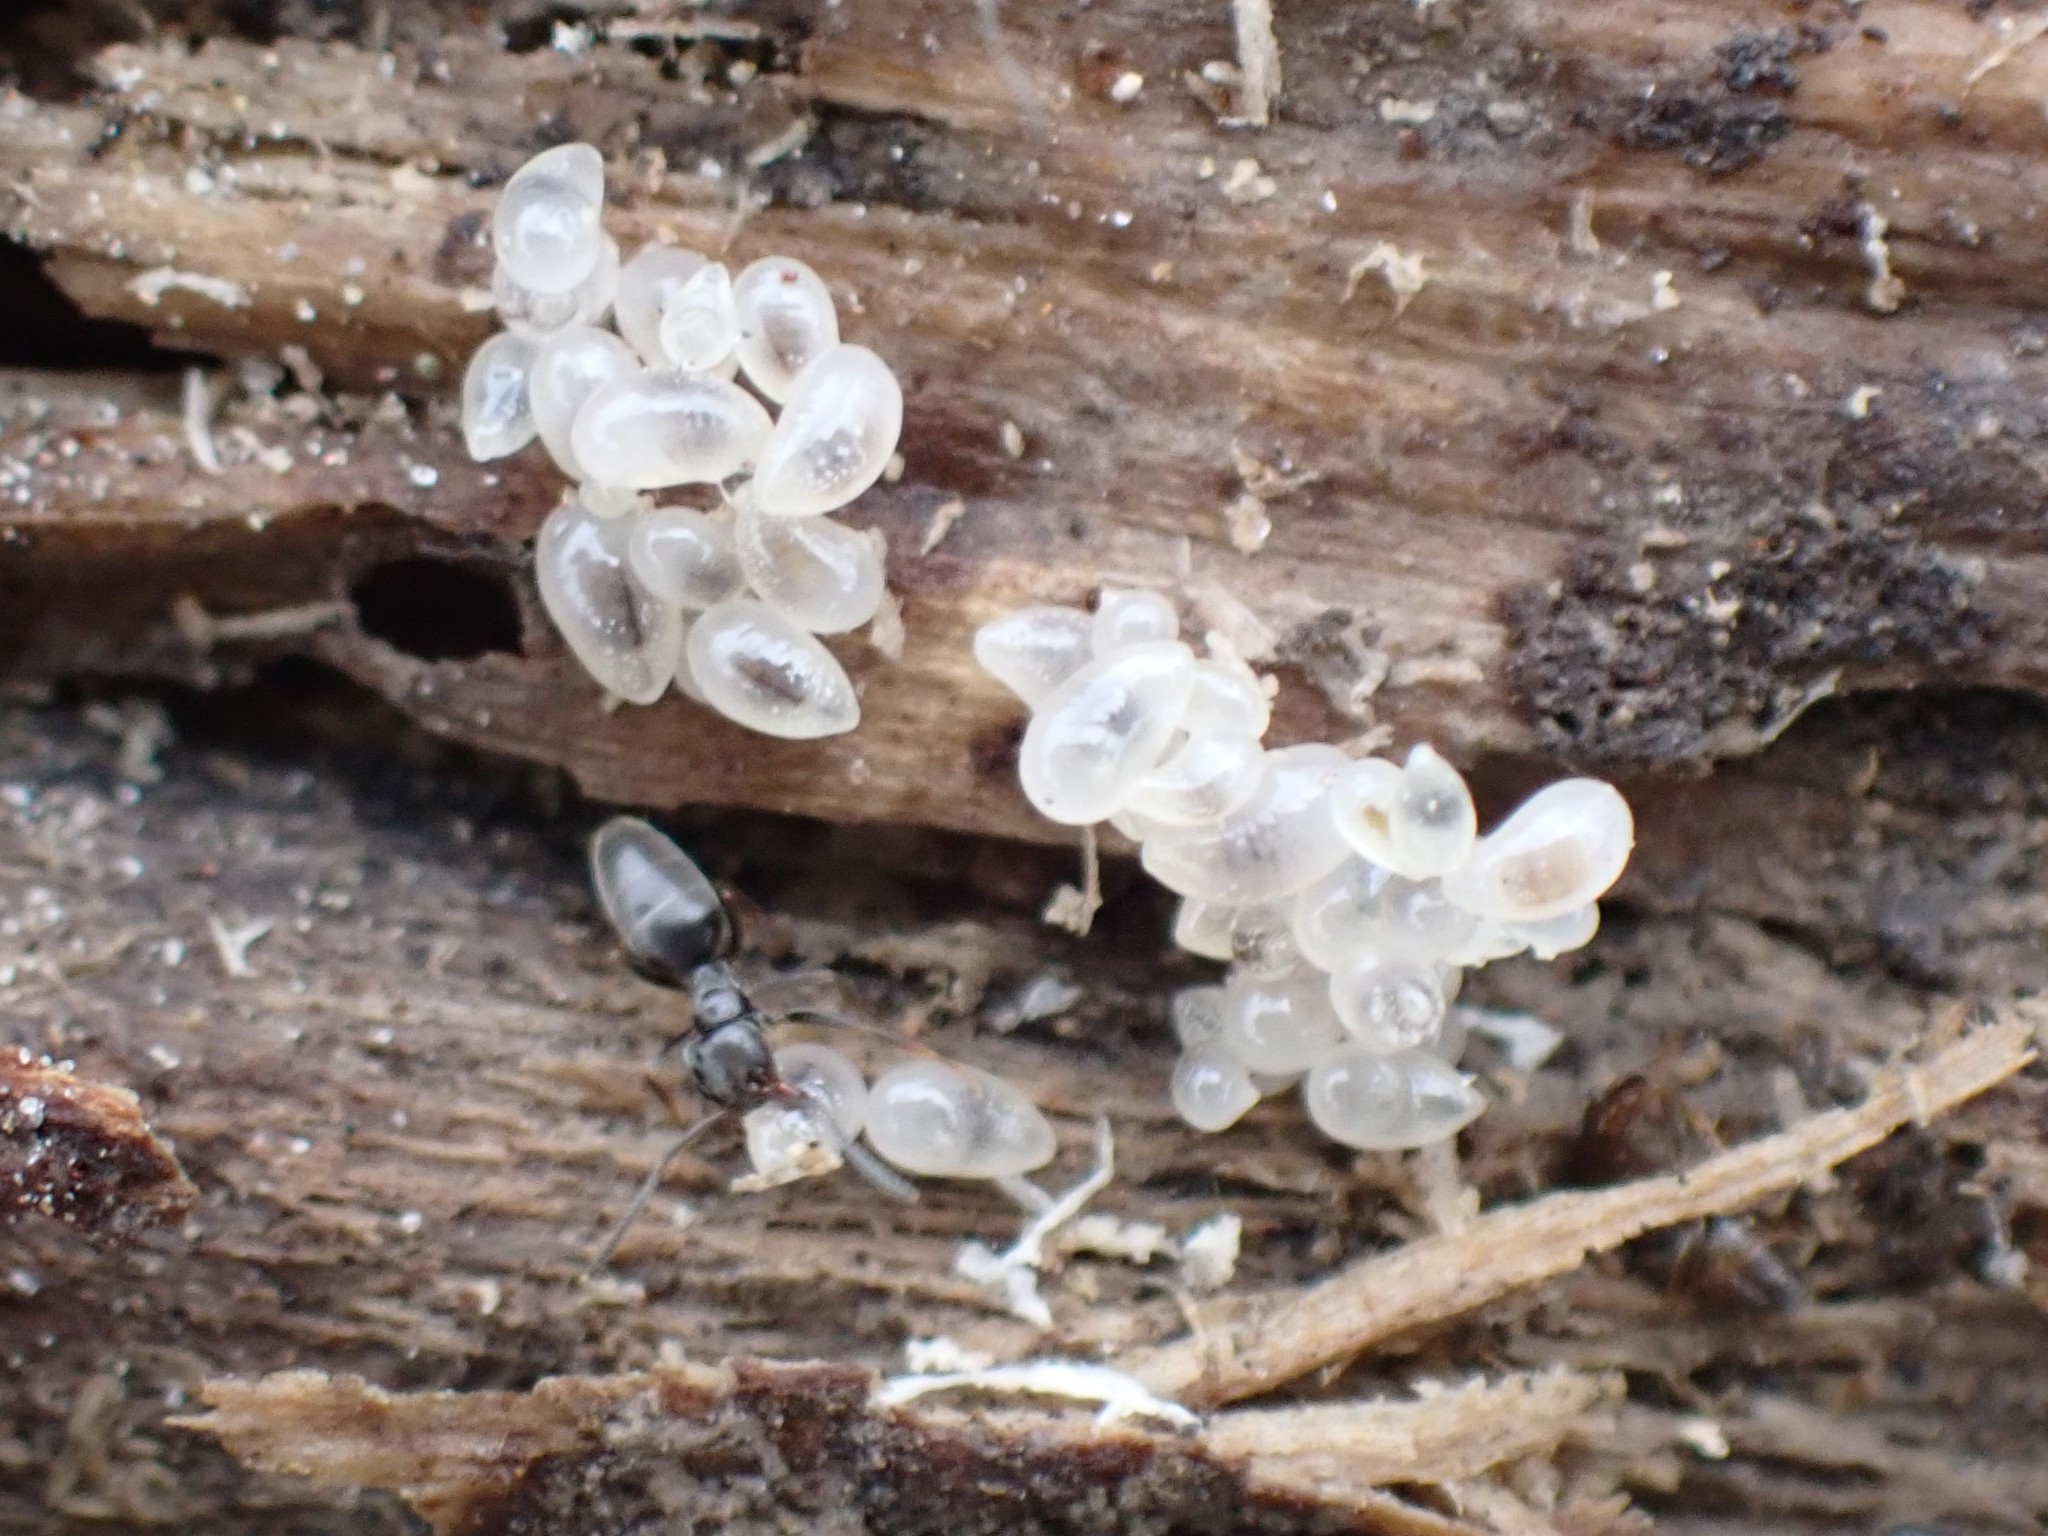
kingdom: Animalia
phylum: Arthropoda
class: Insecta
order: Hymenoptera
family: Formicidae
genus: Tapinoma
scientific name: Tapinoma sessile
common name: Odorous house ant
